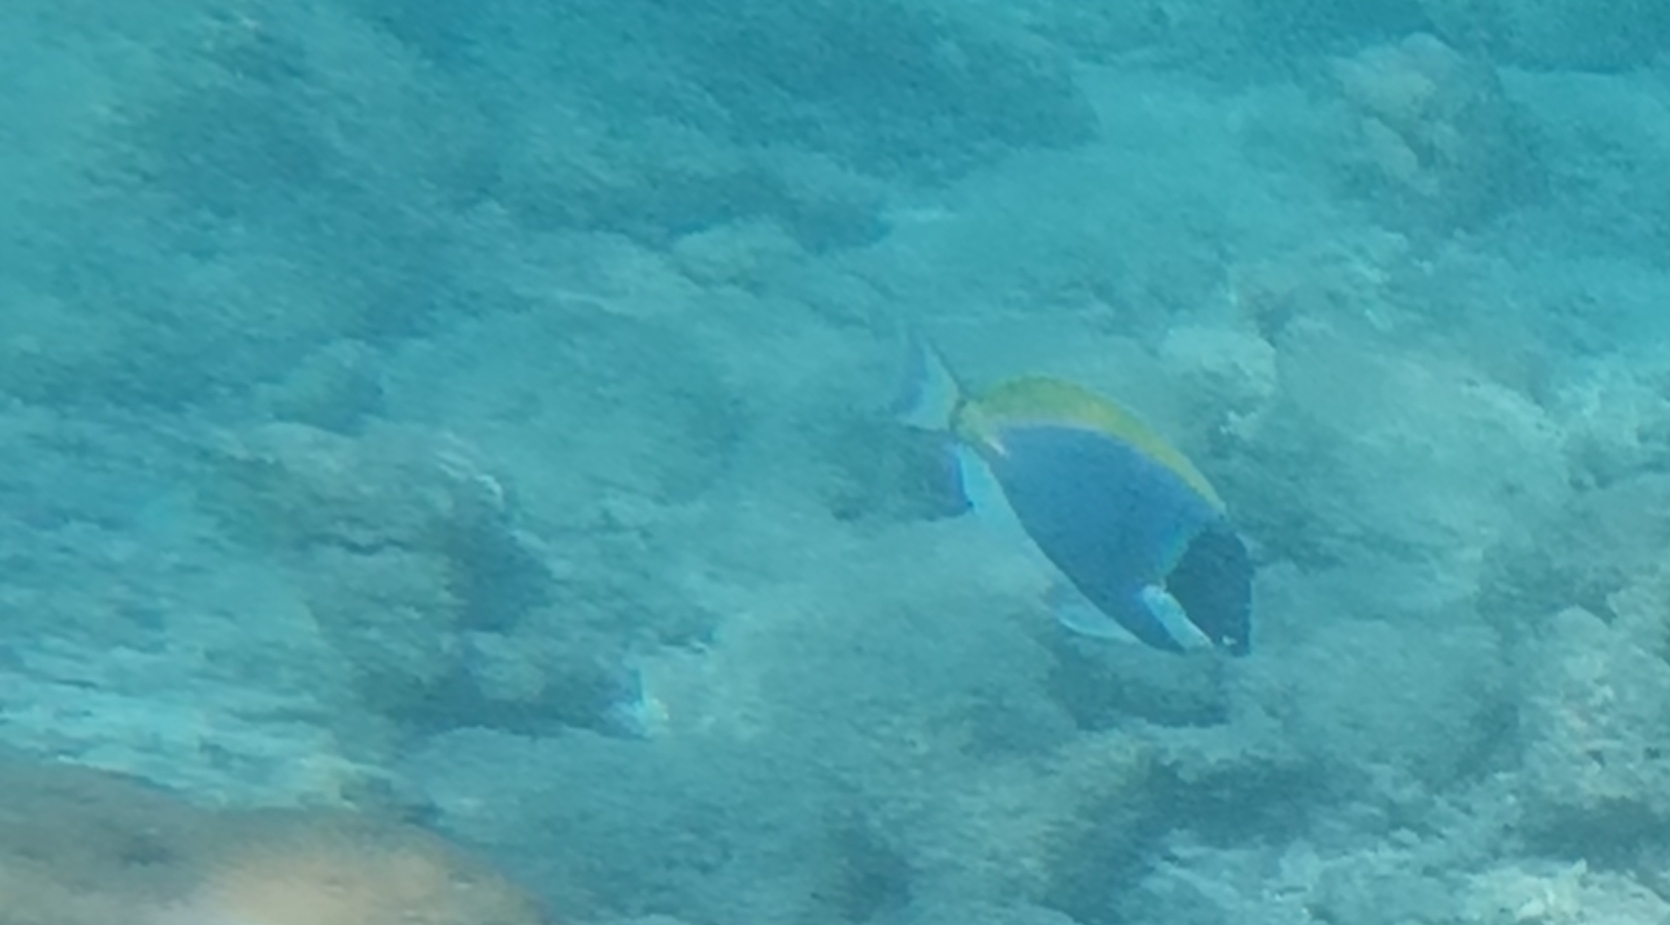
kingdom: Animalia
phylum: Chordata
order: Perciformes
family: Acanthuridae
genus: Acanthurus
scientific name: Acanthurus leucosternon
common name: Blue surgeonfish
